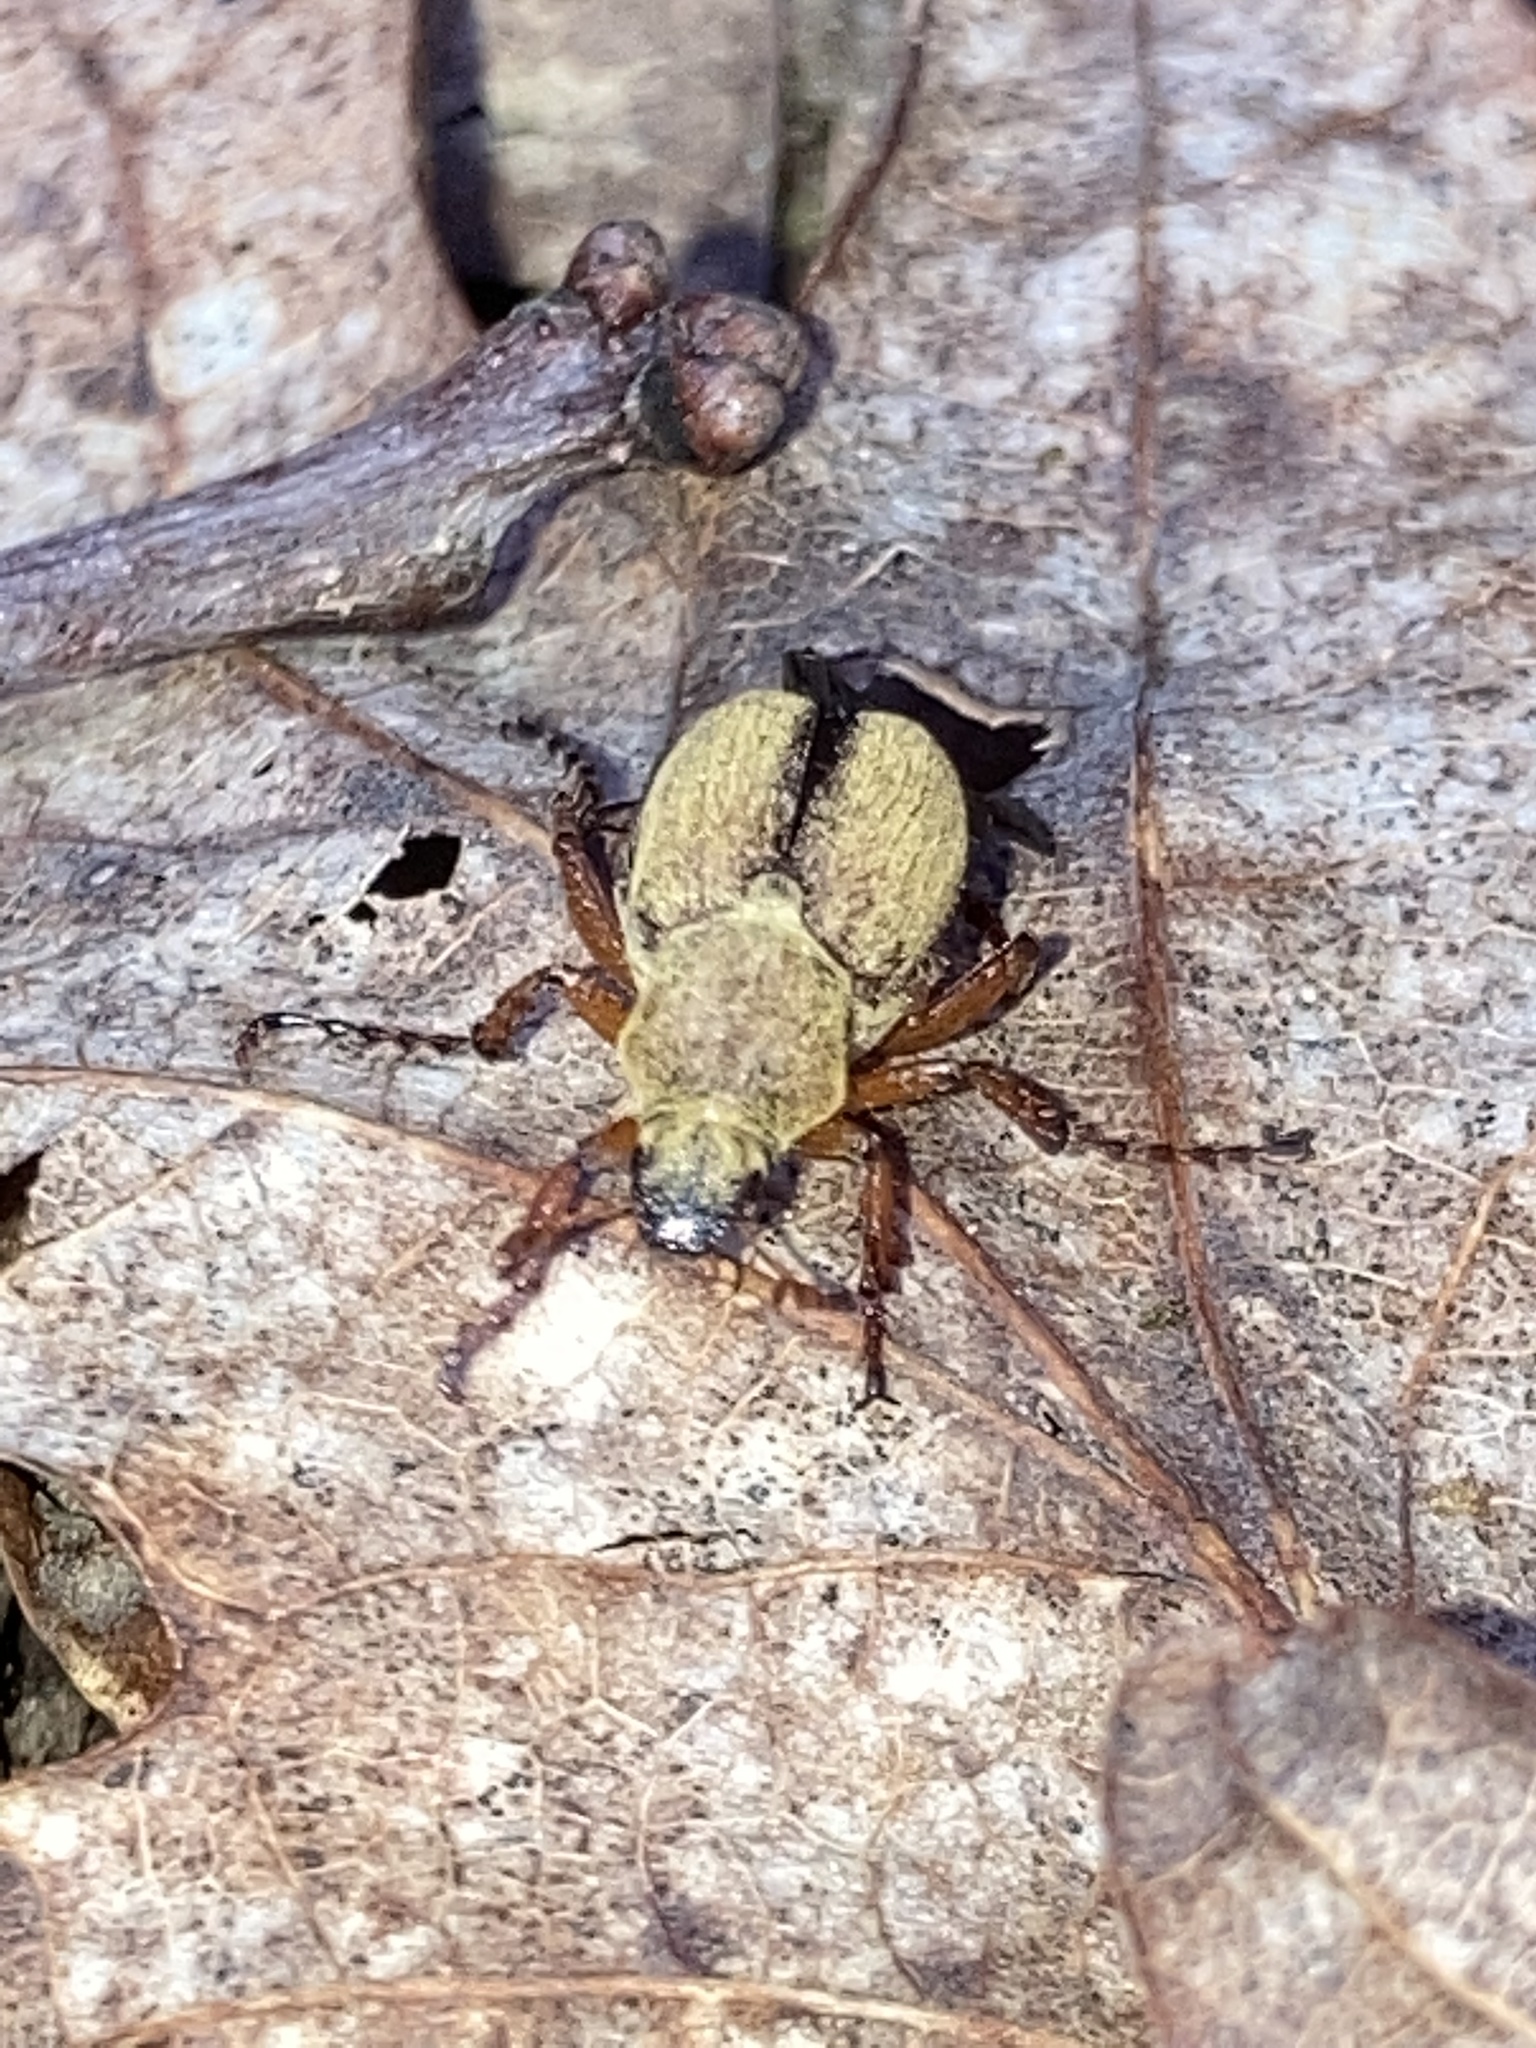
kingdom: Animalia
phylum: Arthropoda
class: Insecta
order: Coleoptera
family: Scarabaeidae
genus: Macrodactylus
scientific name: Macrodactylus subspinosus
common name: American rose chafer
